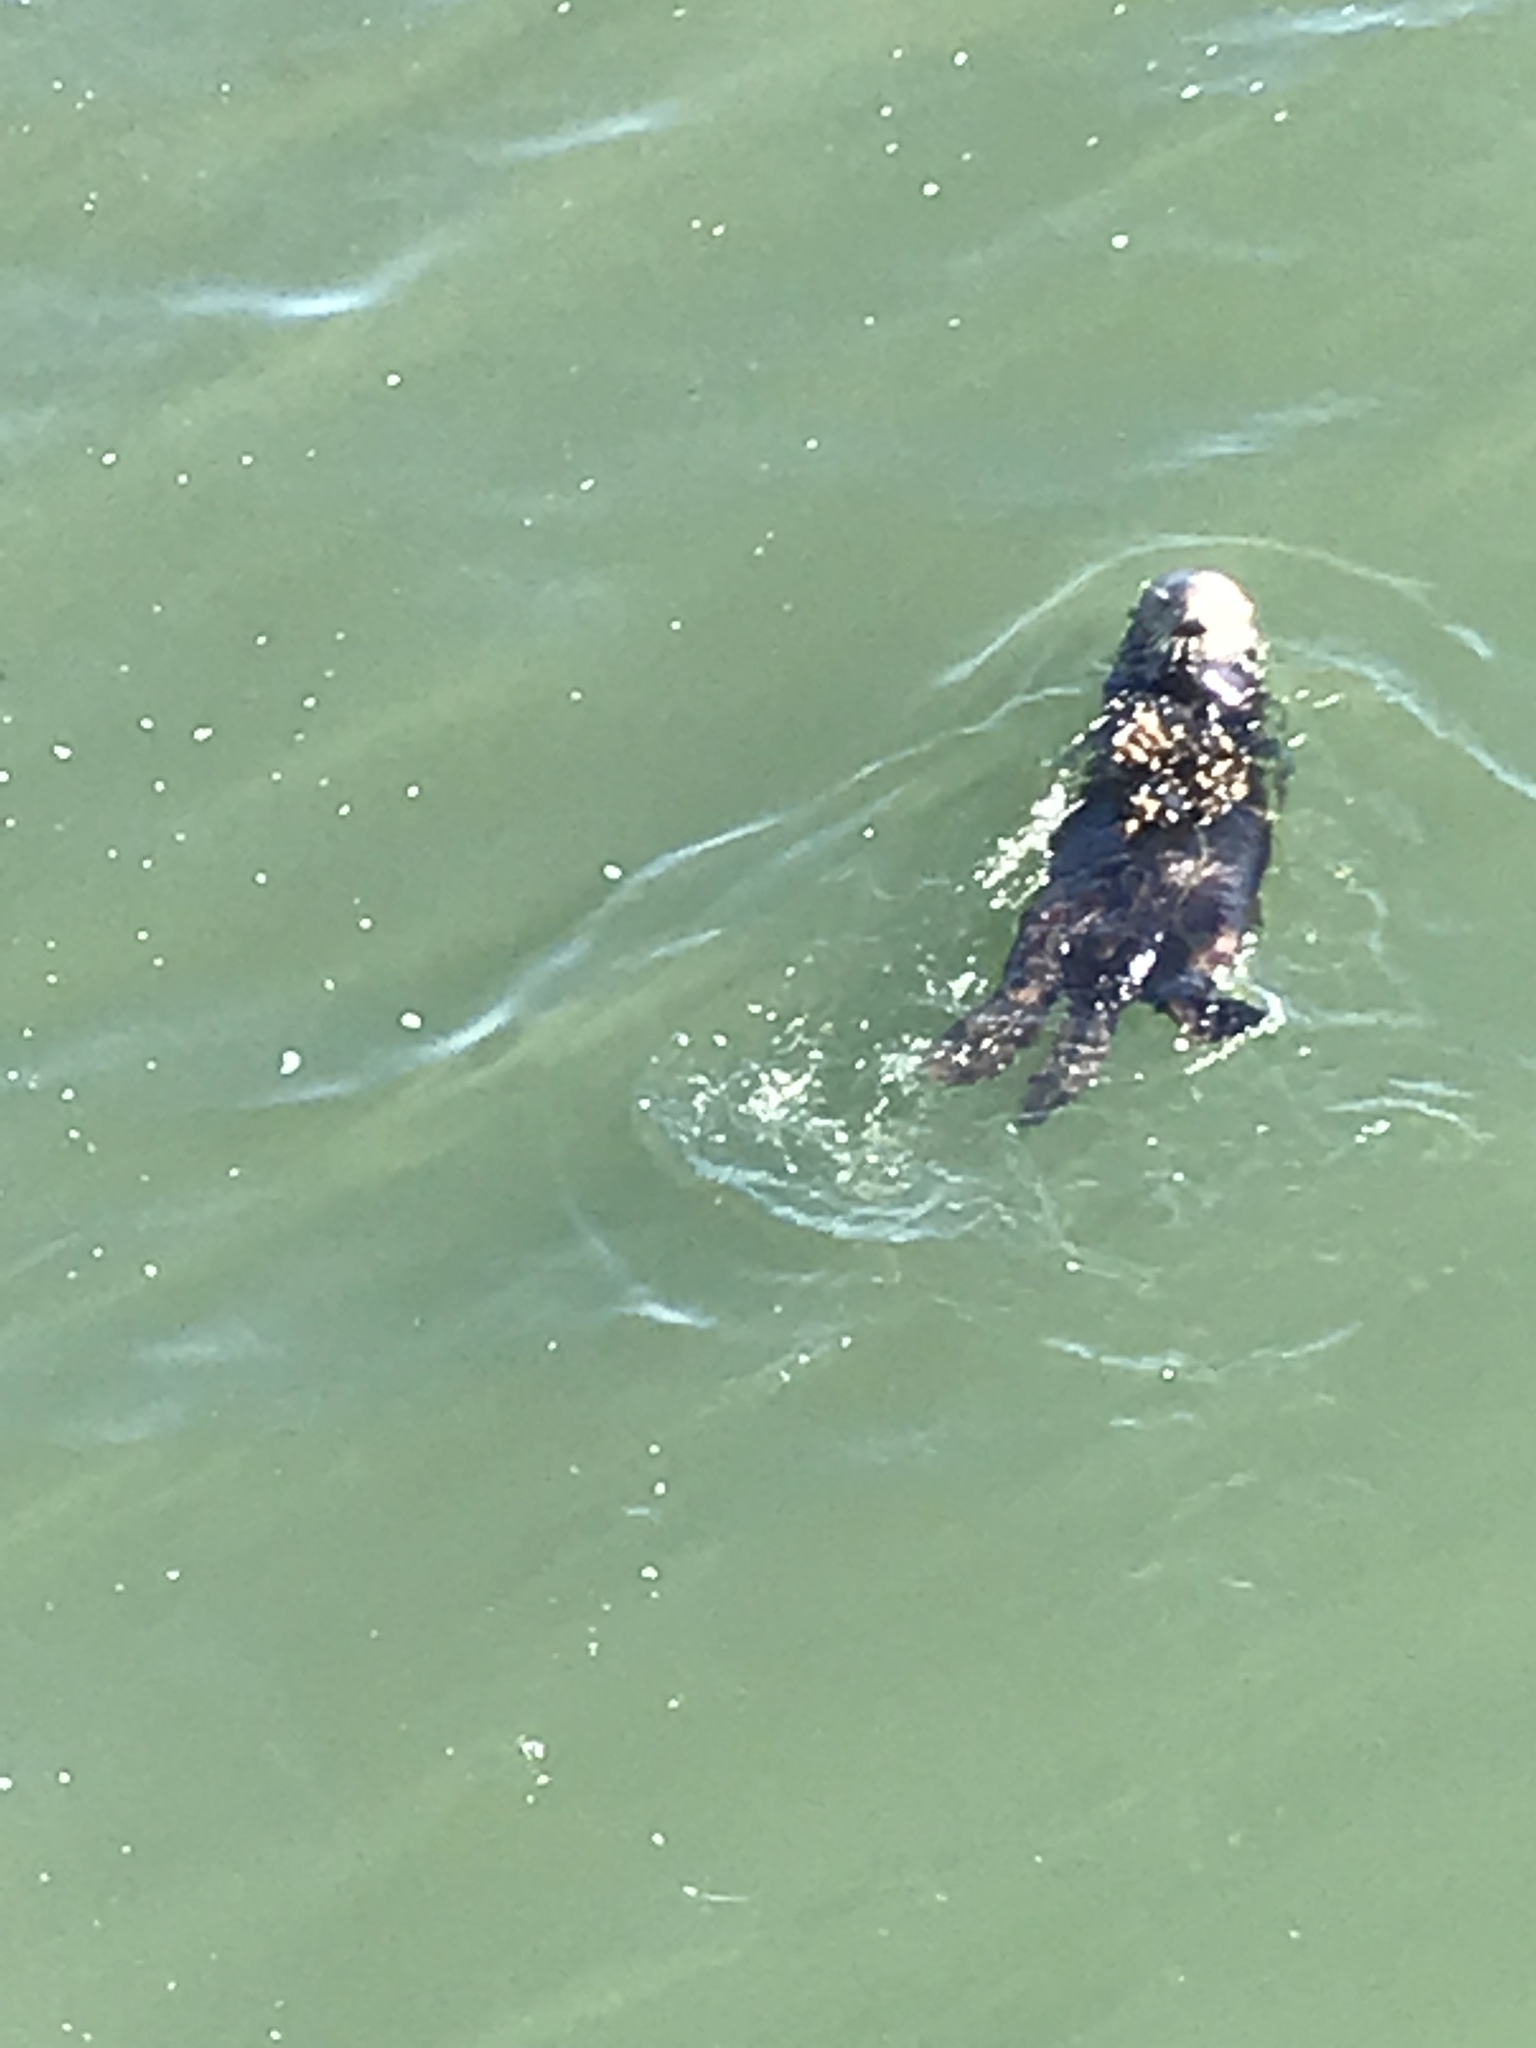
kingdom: Animalia
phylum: Chordata
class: Mammalia
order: Carnivora
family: Mustelidae
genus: Enhydra
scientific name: Enhydra lutris
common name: Sea otter
